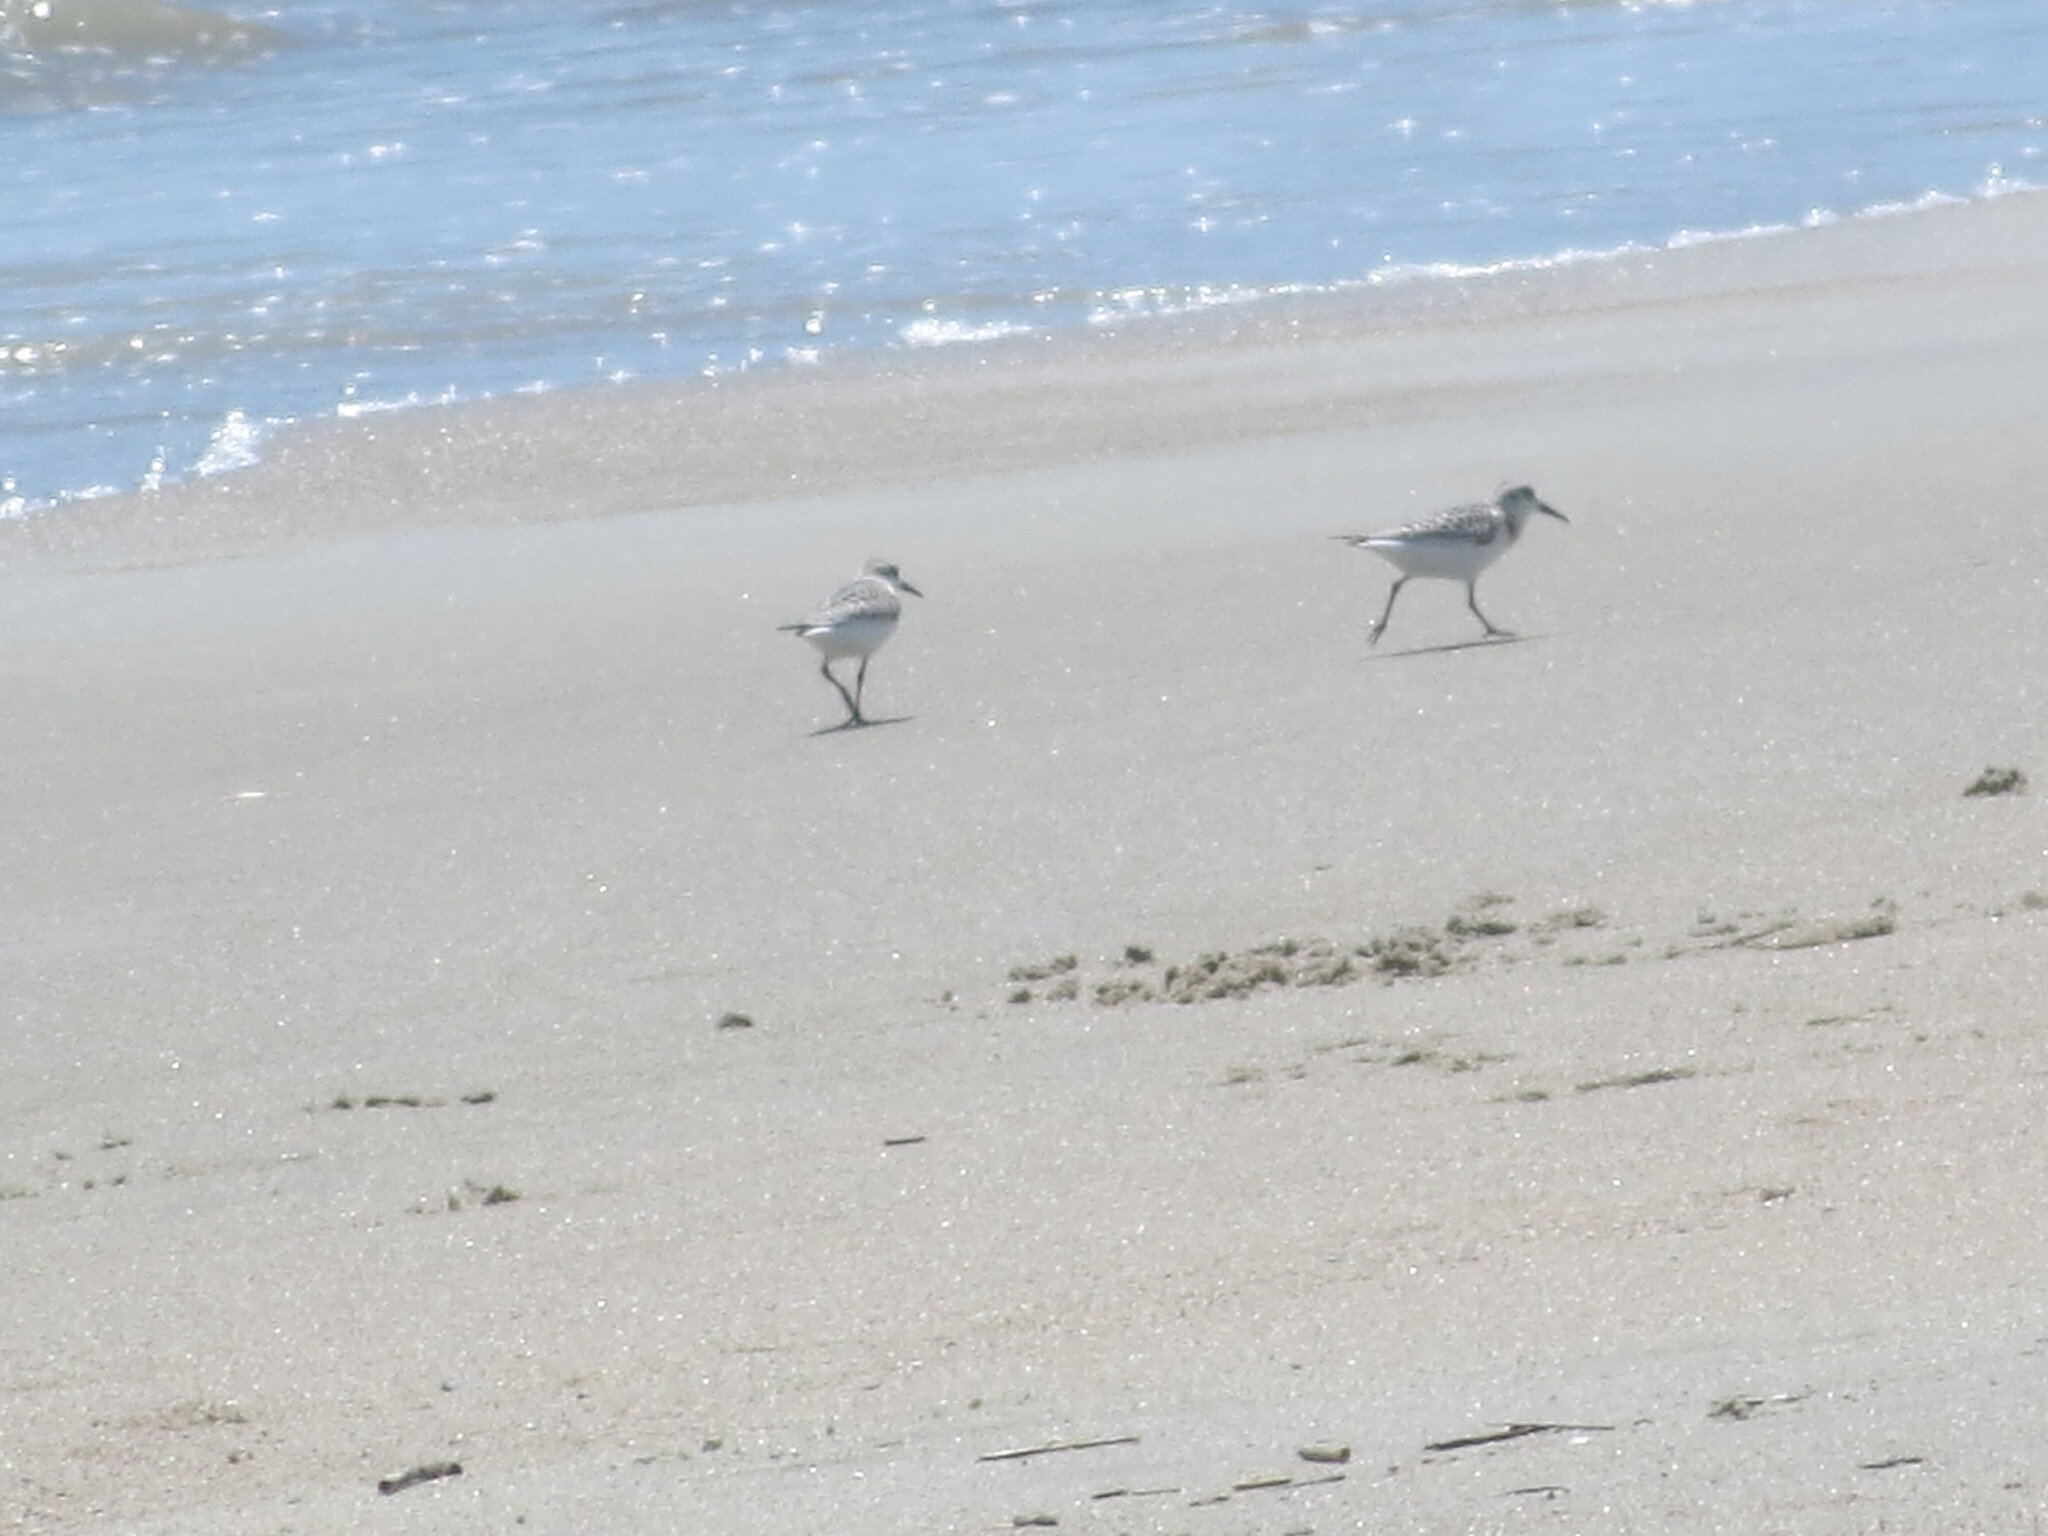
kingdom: Animalia
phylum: Chordata
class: Aves
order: Charadriiformes
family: Scolopacidae
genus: Calidris
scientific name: Calidris alba
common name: Sanderling
